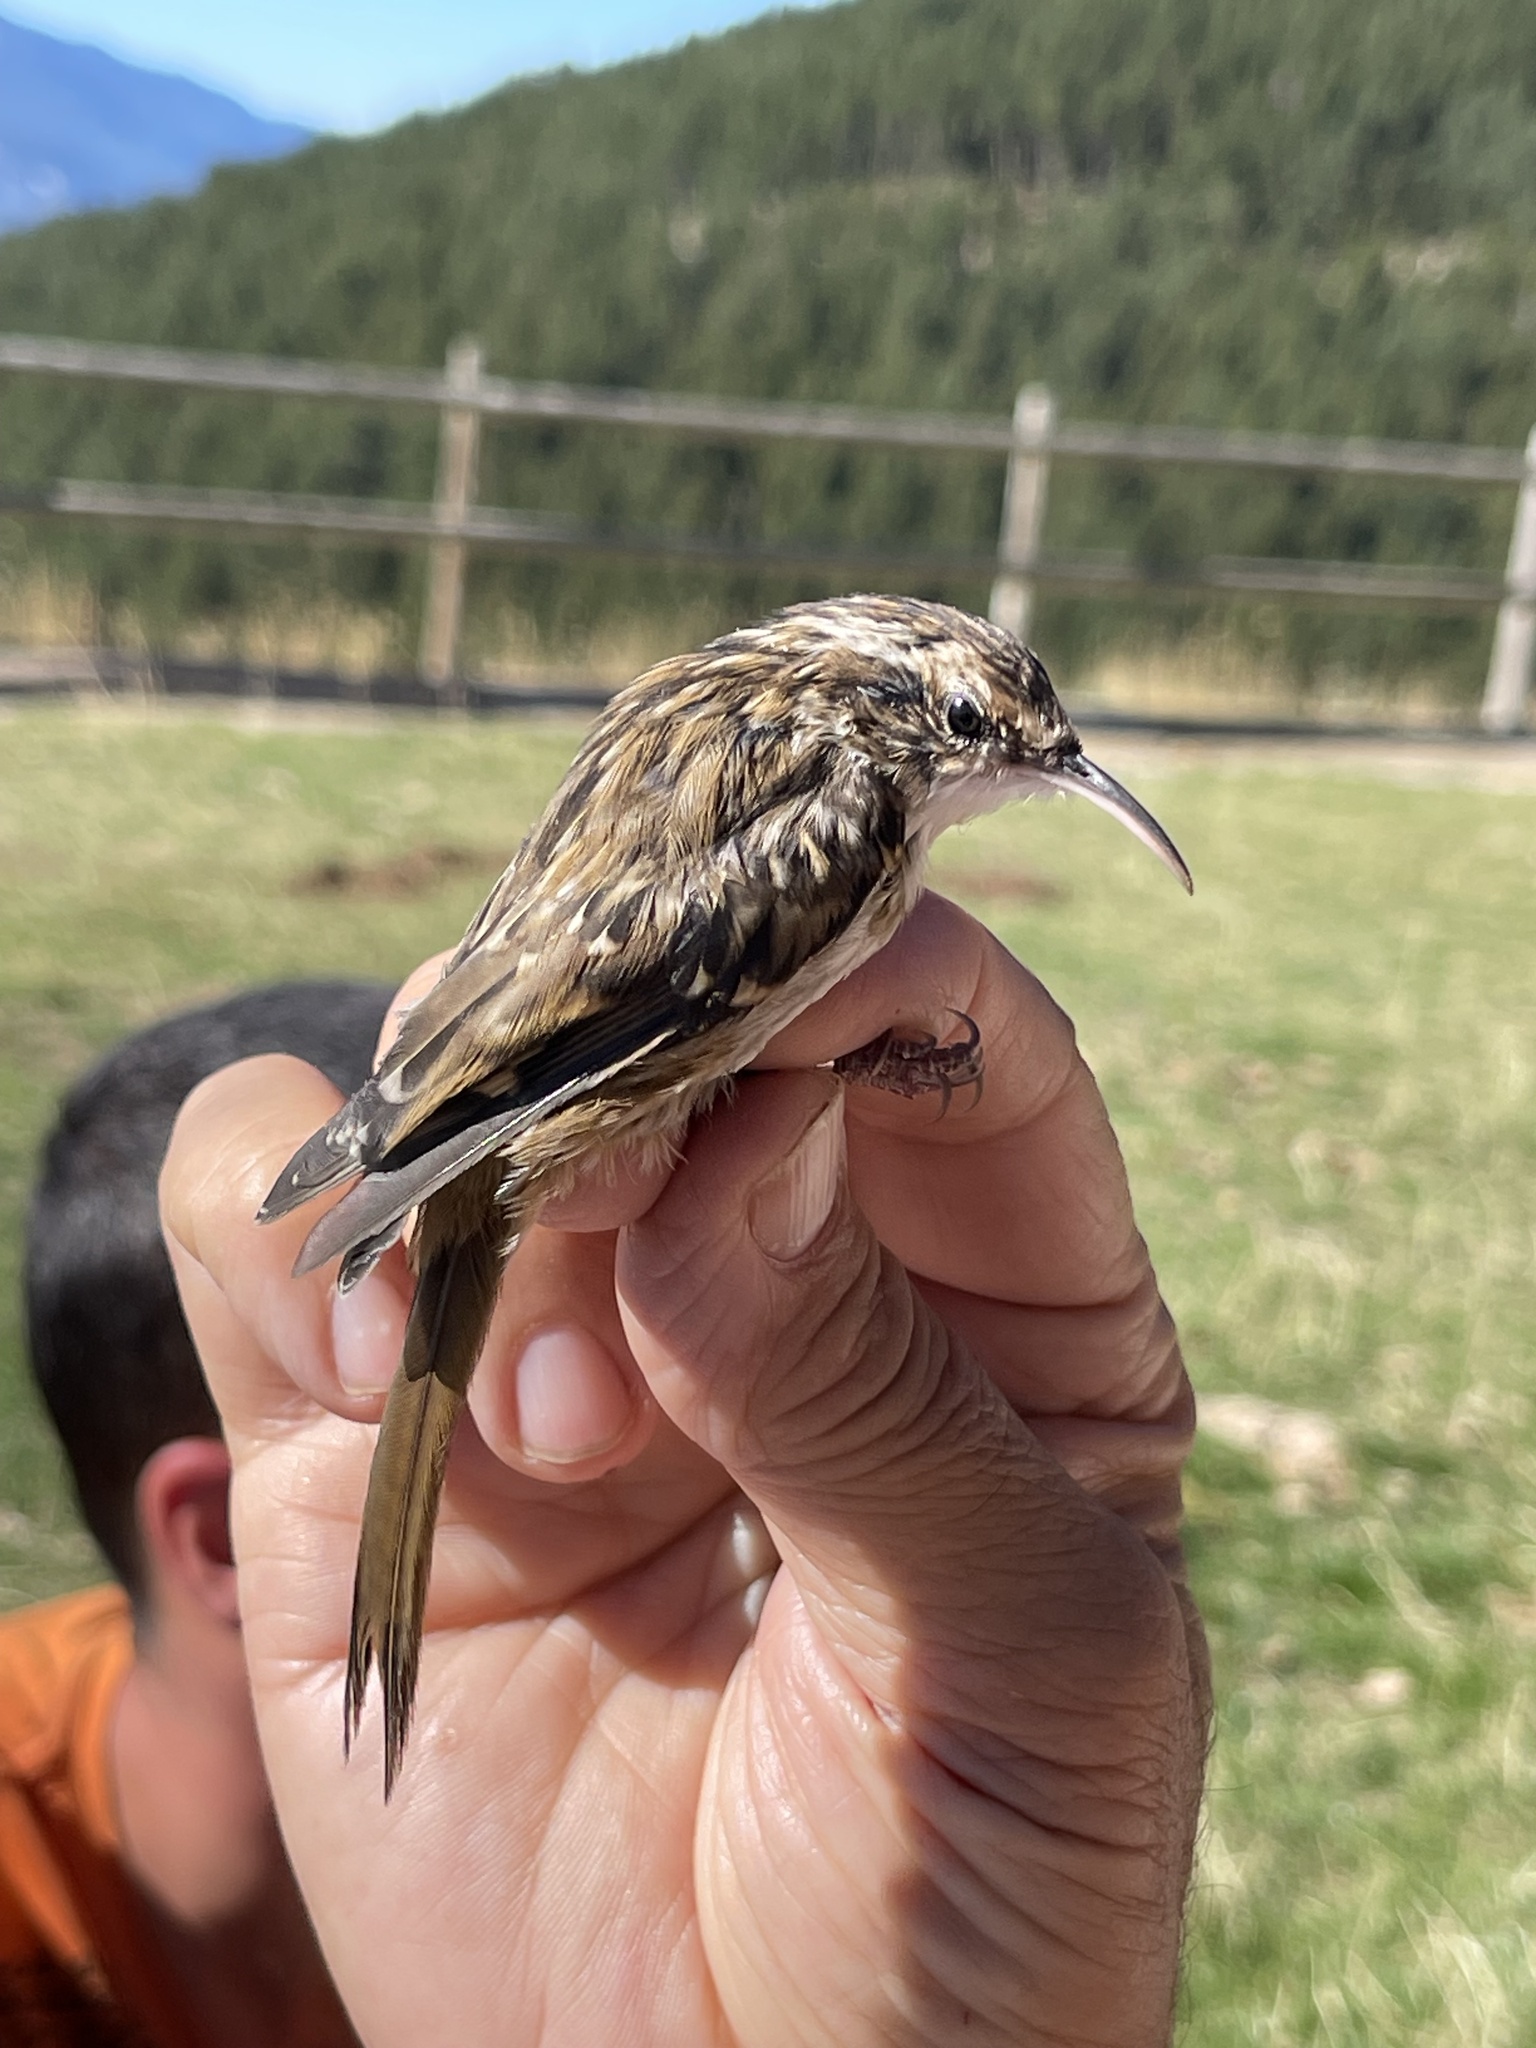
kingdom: Animalia
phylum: Chordata
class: Aves
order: Passeriformes
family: Certhiidae
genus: Certhia
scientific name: Certhia brachydactyla
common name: Short-toed treecreeper
